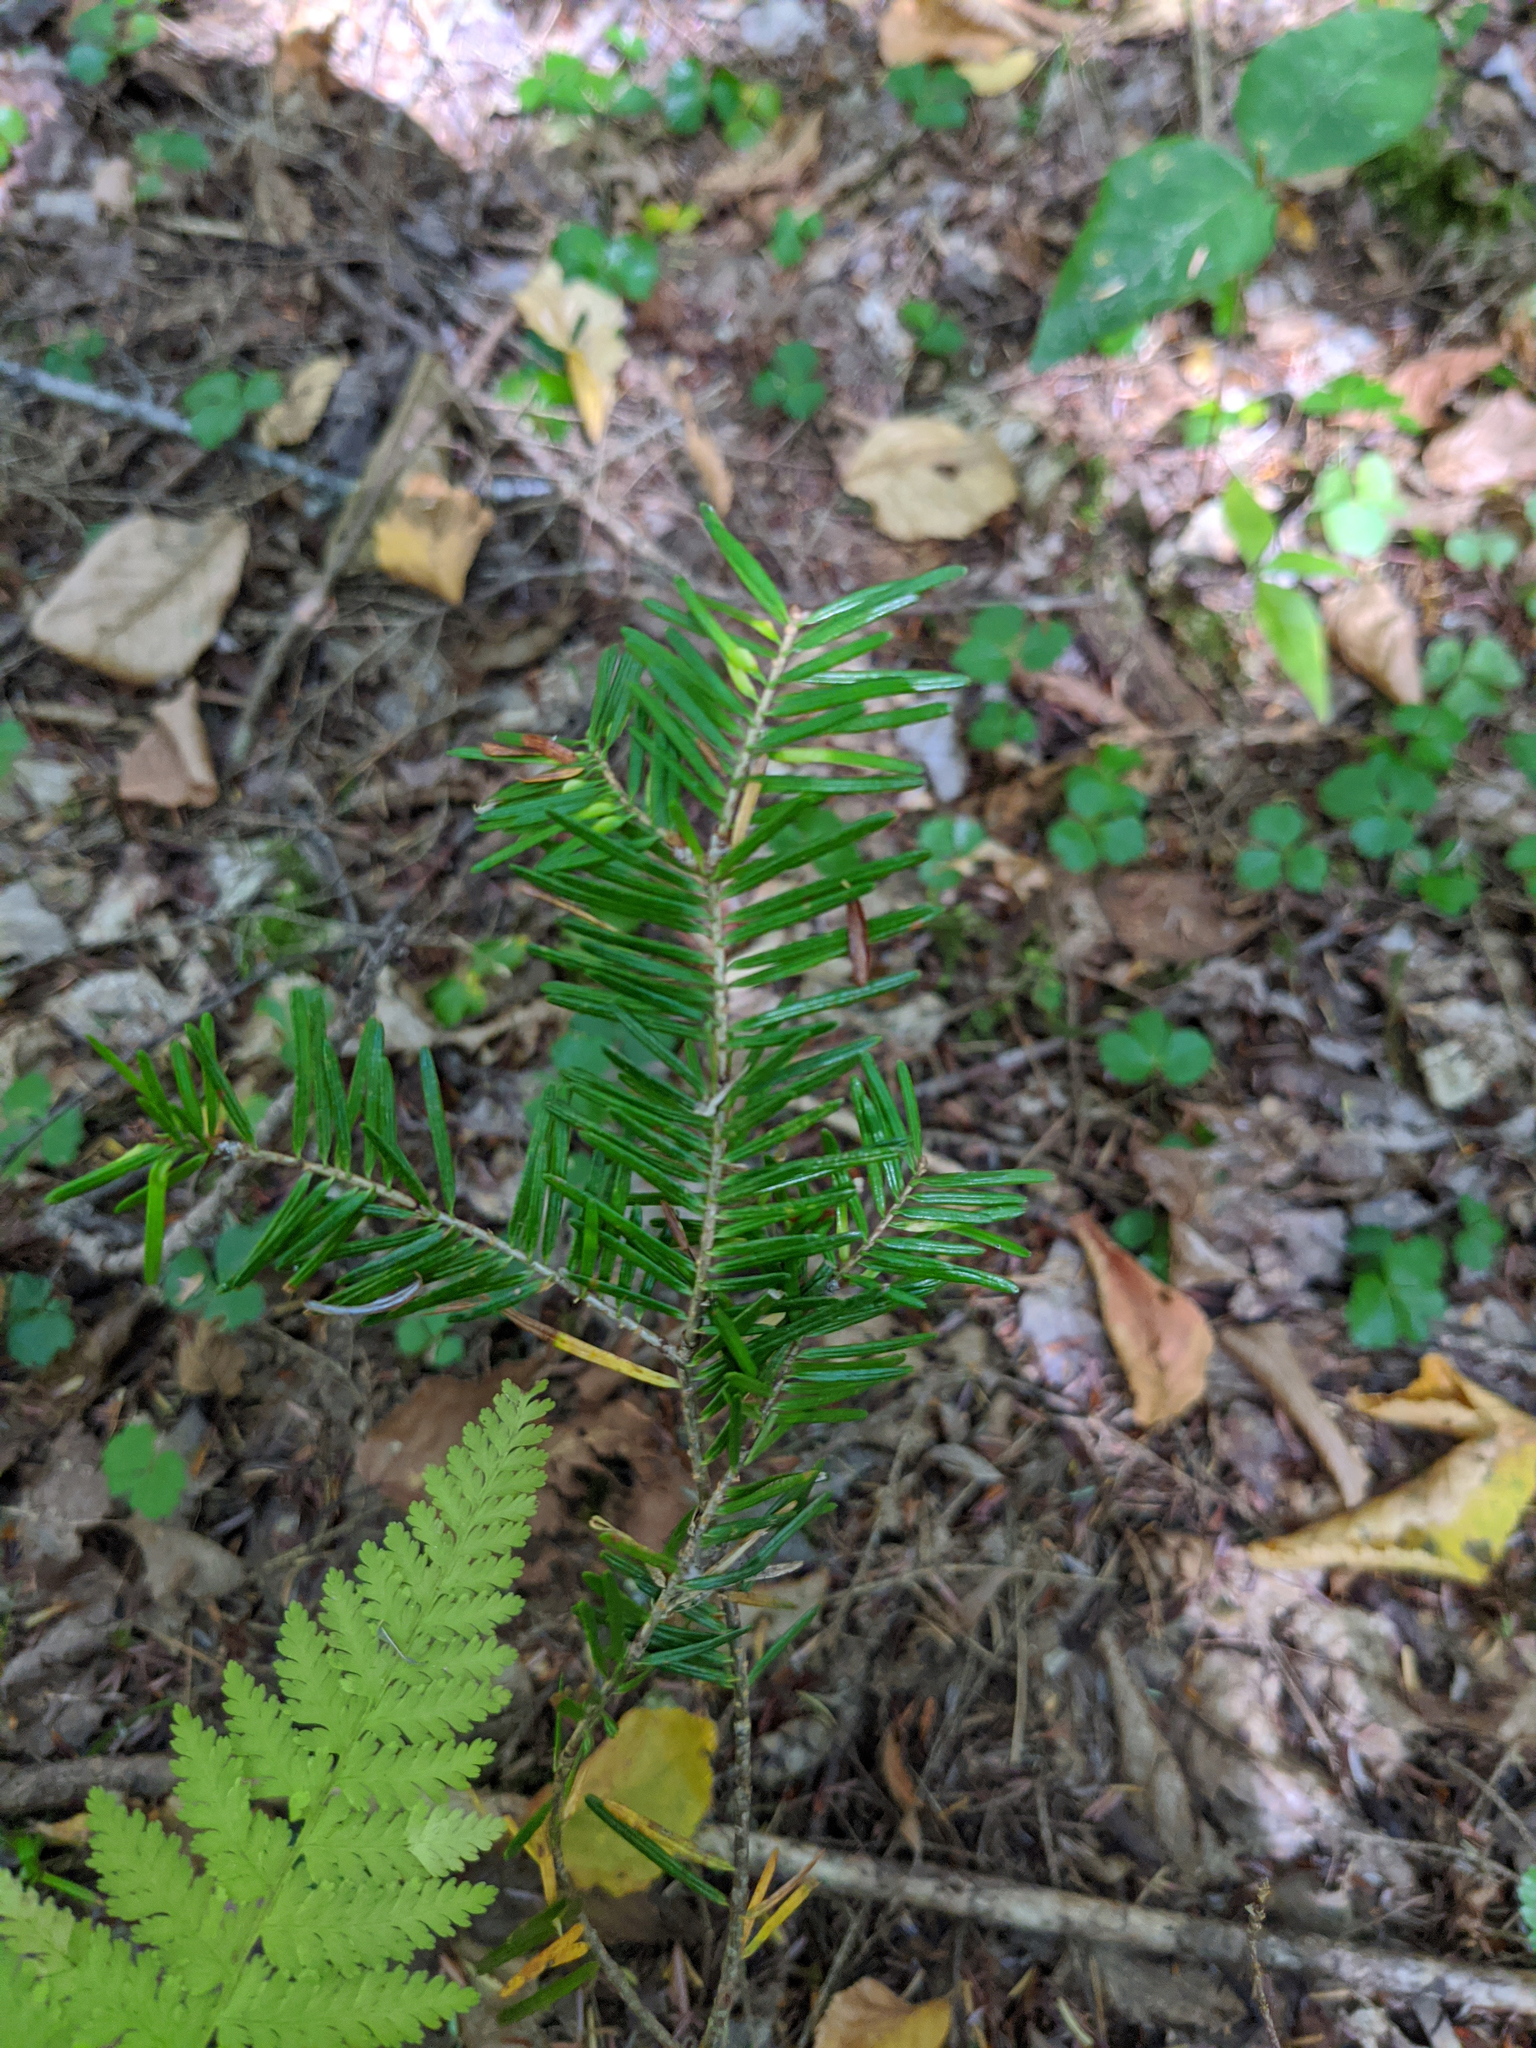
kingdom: Plantae
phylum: Tracheophyta
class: Pinopsida
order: Pinales
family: Pinaceae
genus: Abies
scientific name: Abies balsamea
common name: Balsam fir
